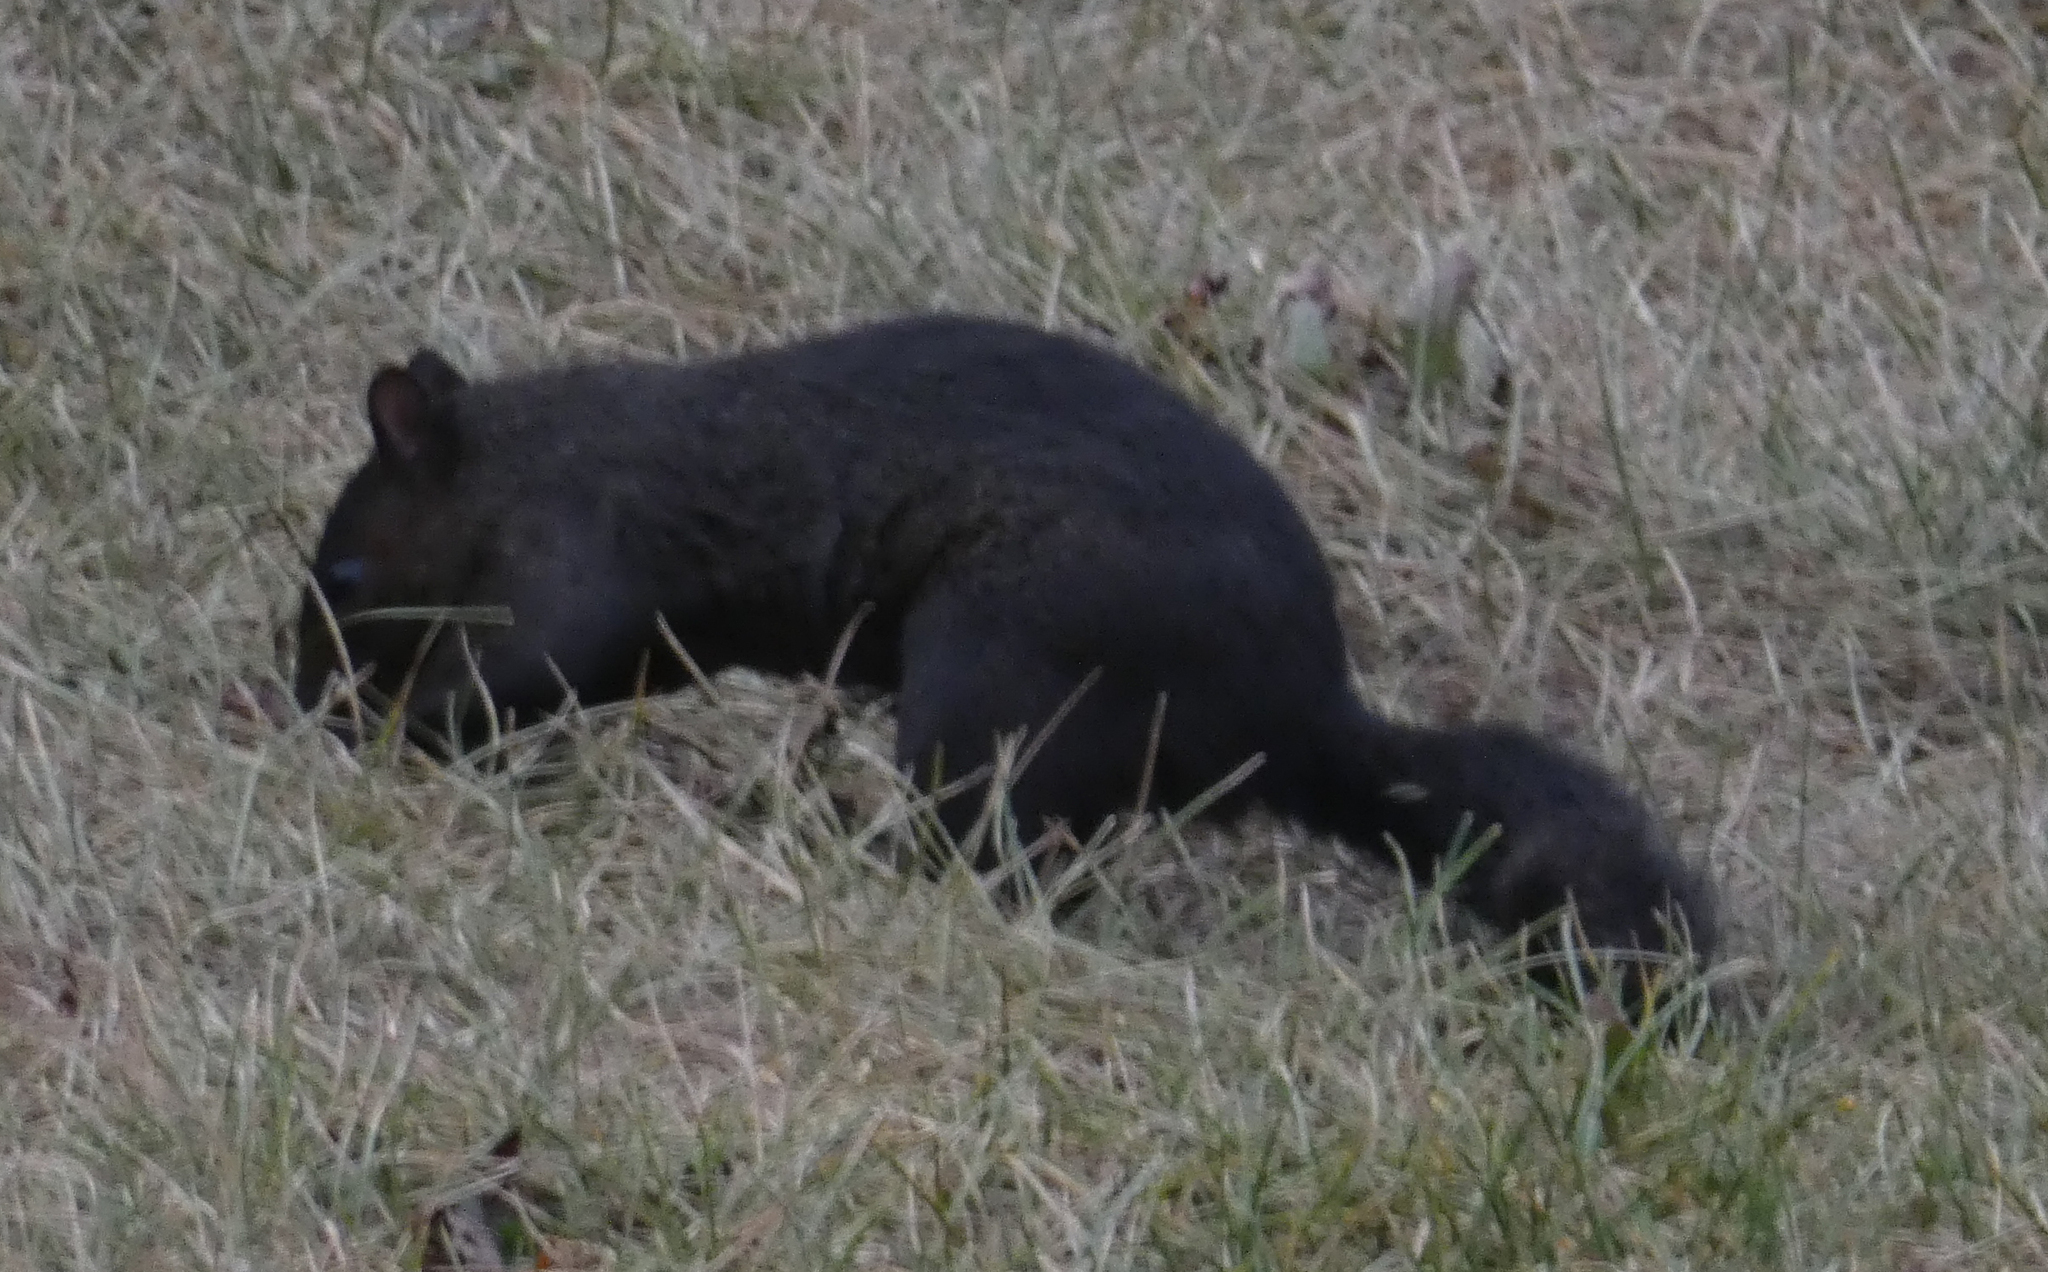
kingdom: Animalia
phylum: Chordata
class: Mammalia
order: Rodentia
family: Sciuridae
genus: Sciurus
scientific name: Sciurus carolinensis
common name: Eastern gray squirrel
